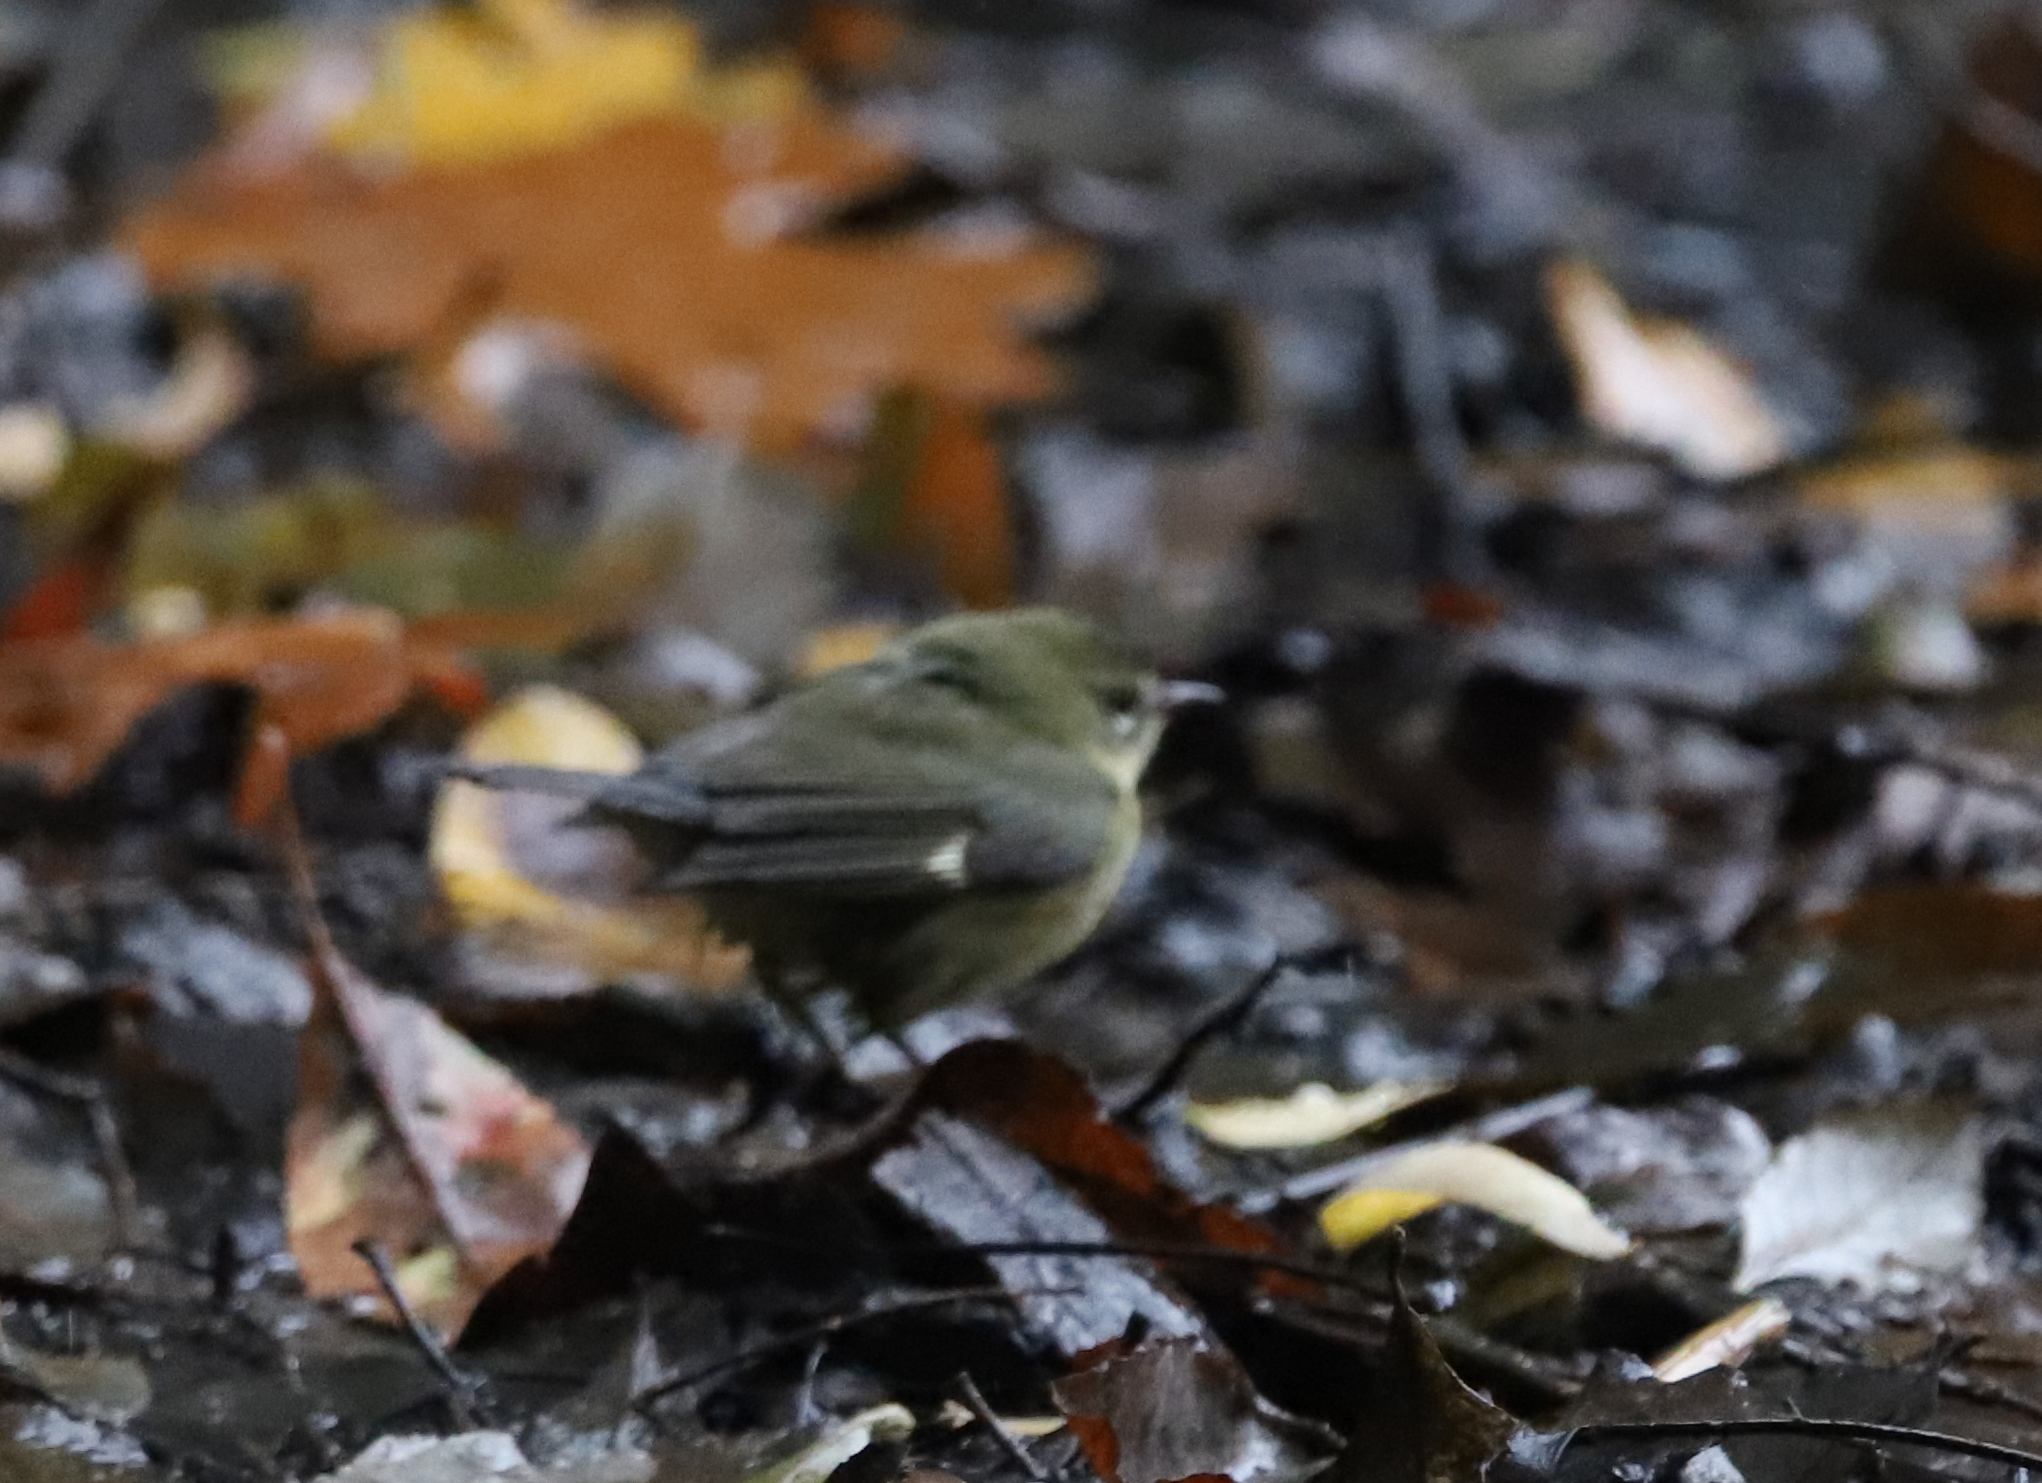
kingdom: Animalia
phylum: Chordata
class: Aves
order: Passeriformes
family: Parulidae
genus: Setophaga
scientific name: Setophaga caerulescens
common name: Black-throated blue warbler
